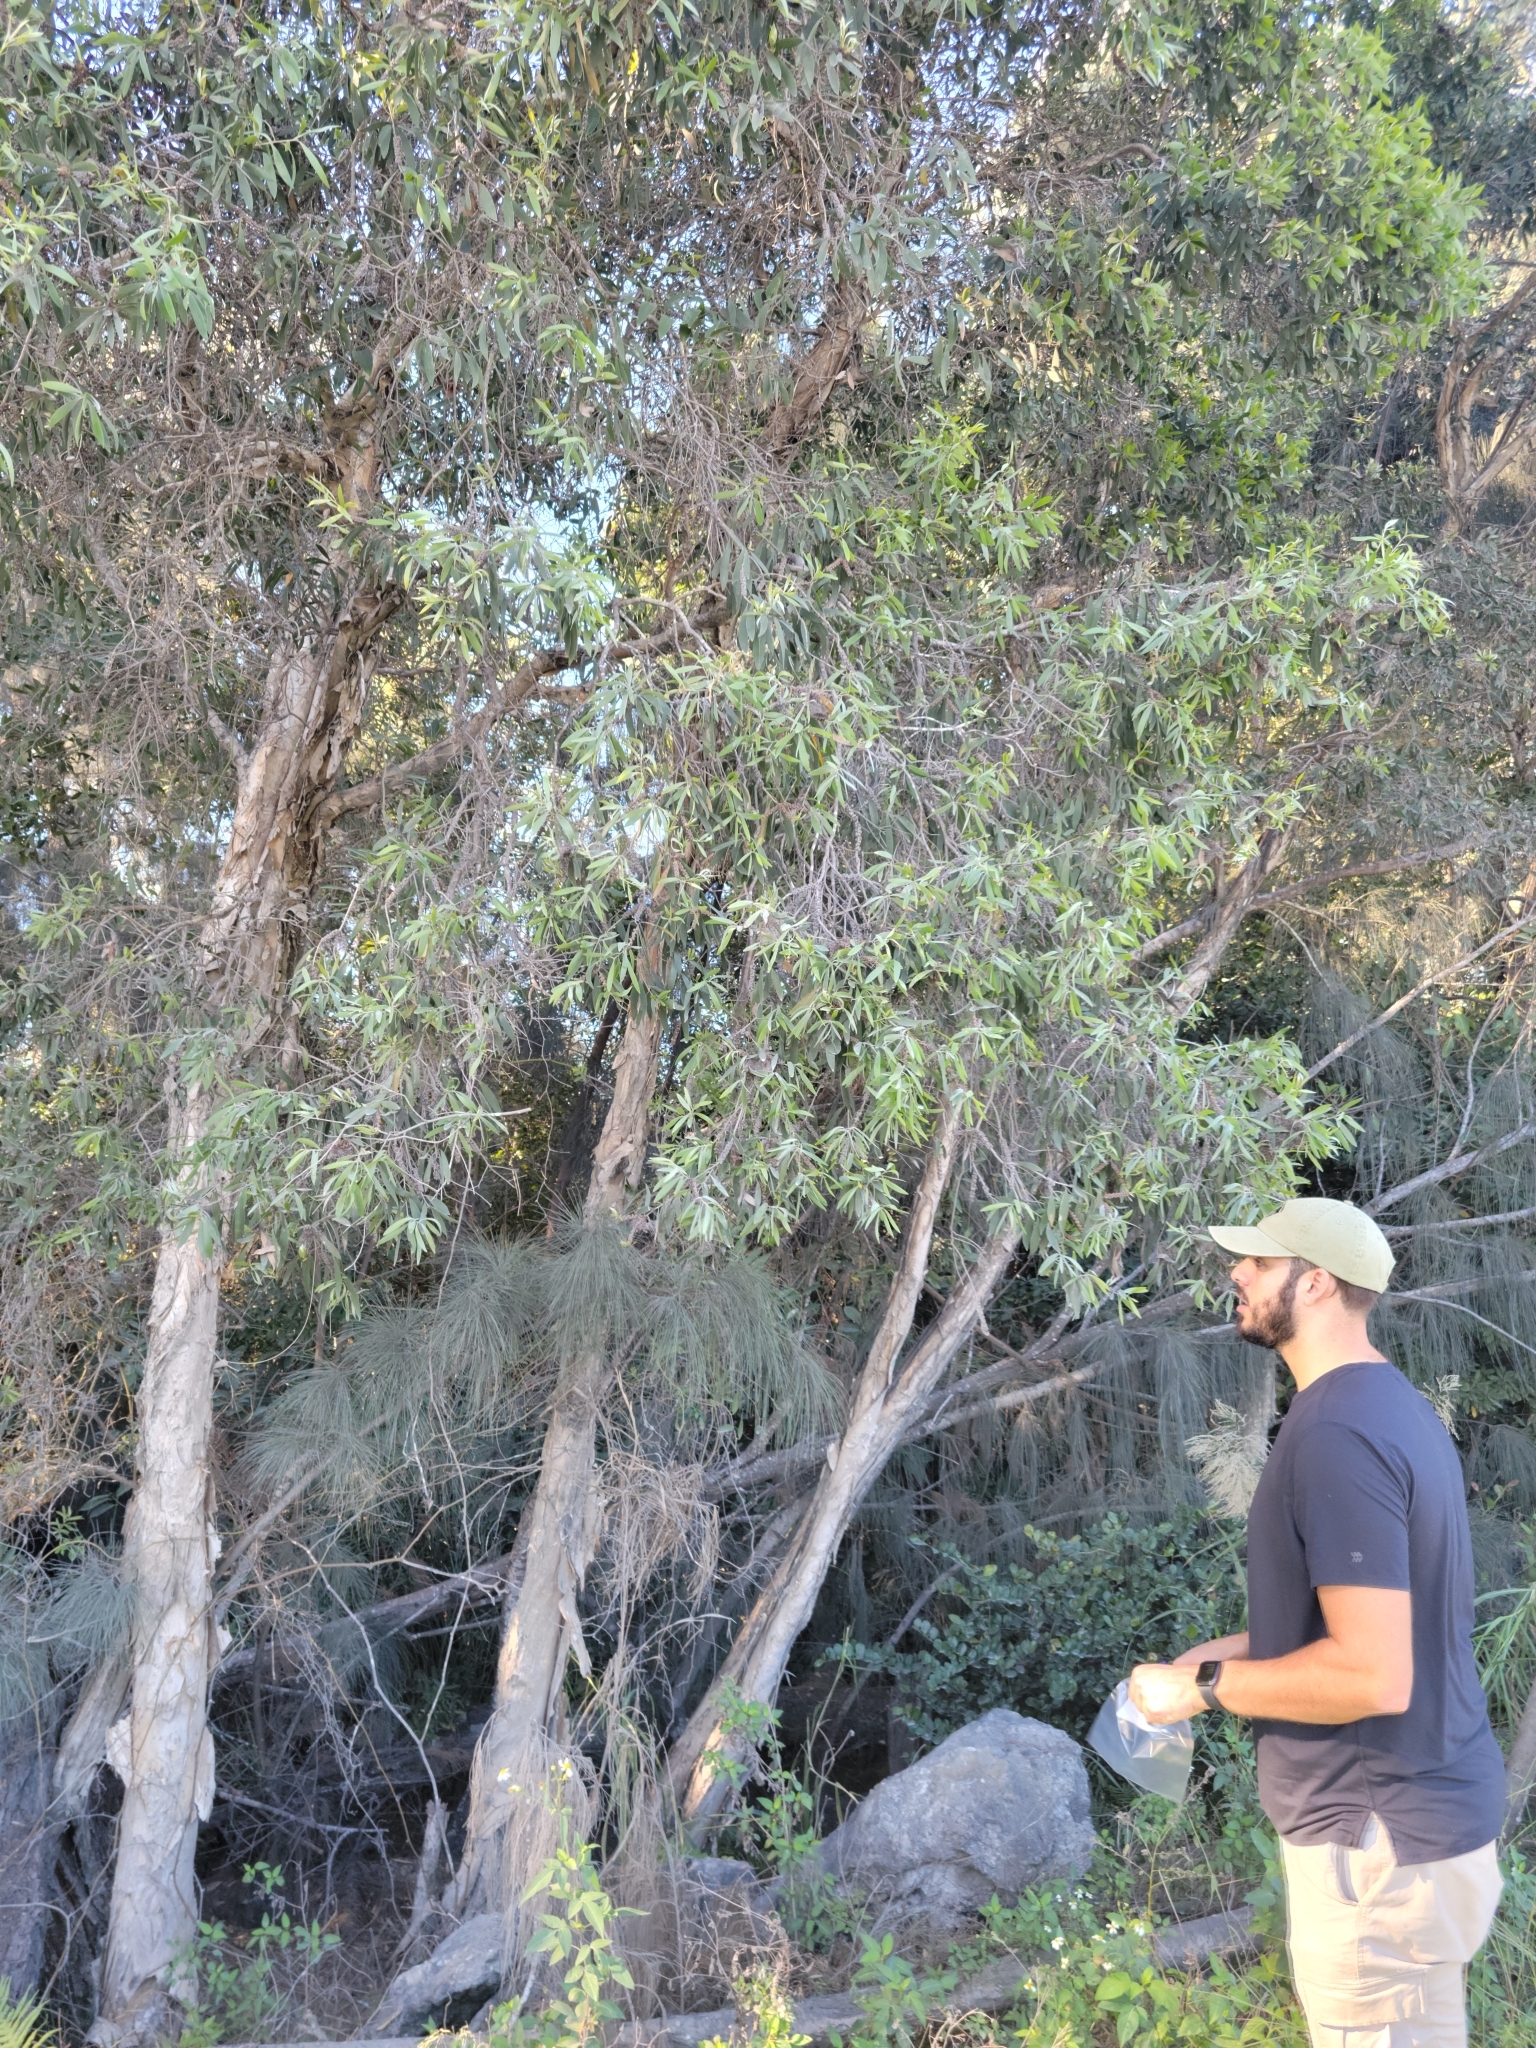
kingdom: Plantae
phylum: Tracheophyta
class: Magnoliopsida
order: Myrtales
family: Myrtaceae
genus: Melaleuca
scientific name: Melaleuca quinquenervia
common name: Punktree
